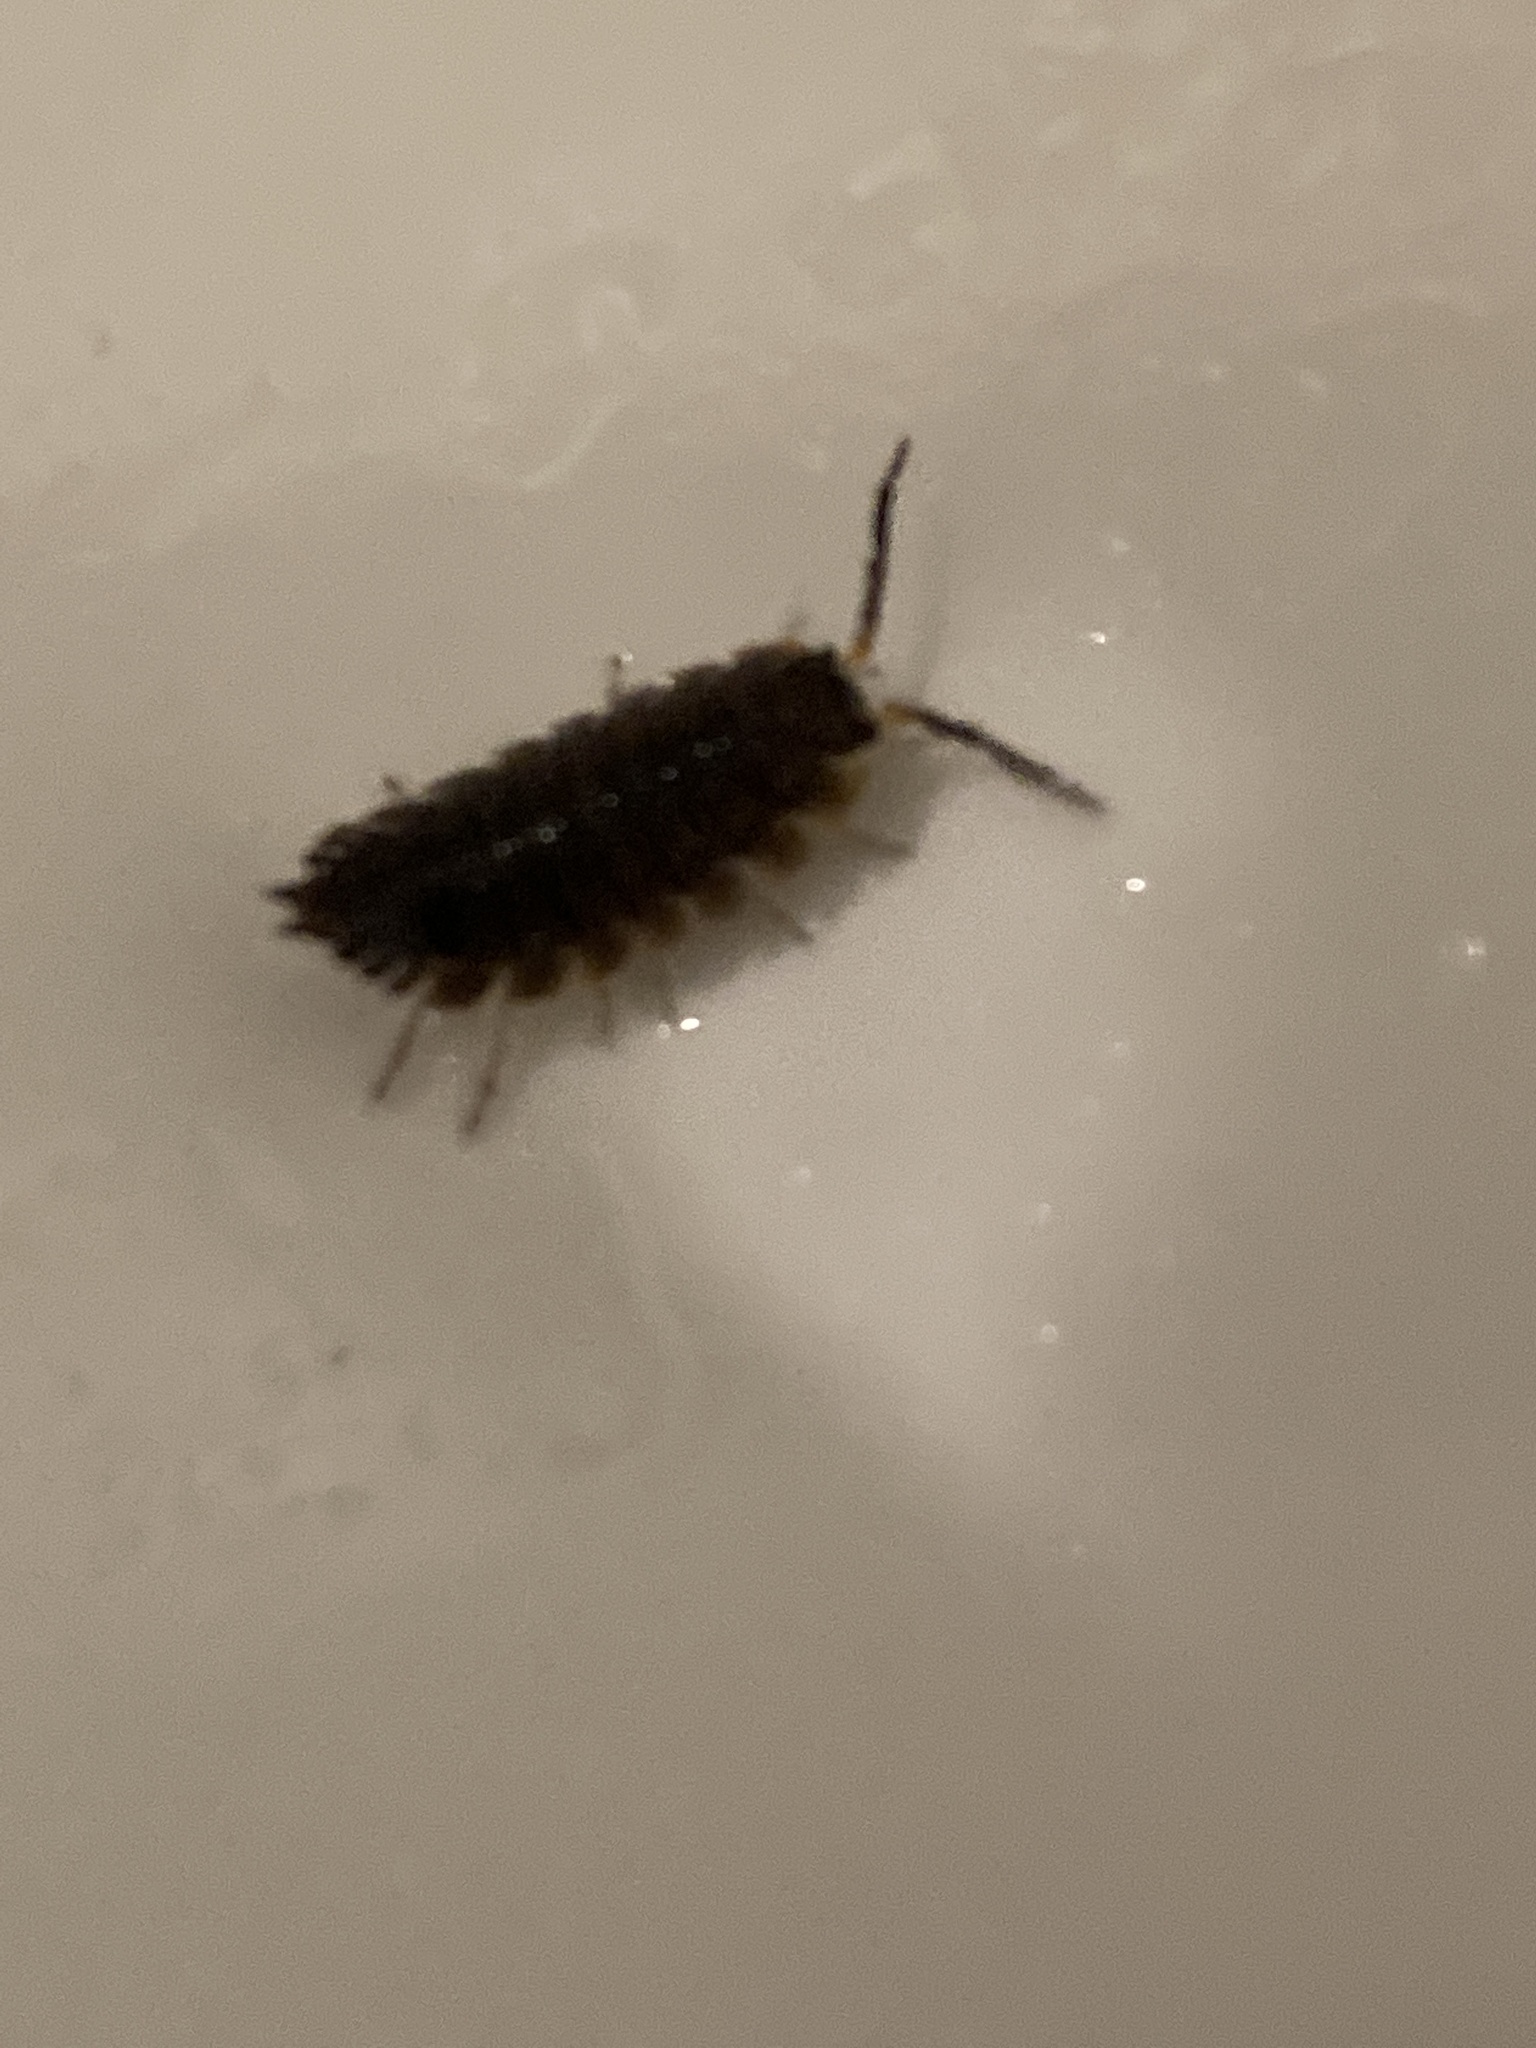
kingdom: Animalia
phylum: Arthropoda
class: Malacostraca
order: Isopoda
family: Porcellionidae
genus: Porcellio
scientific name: Porcellio scaber
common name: Common rough woodlouse
